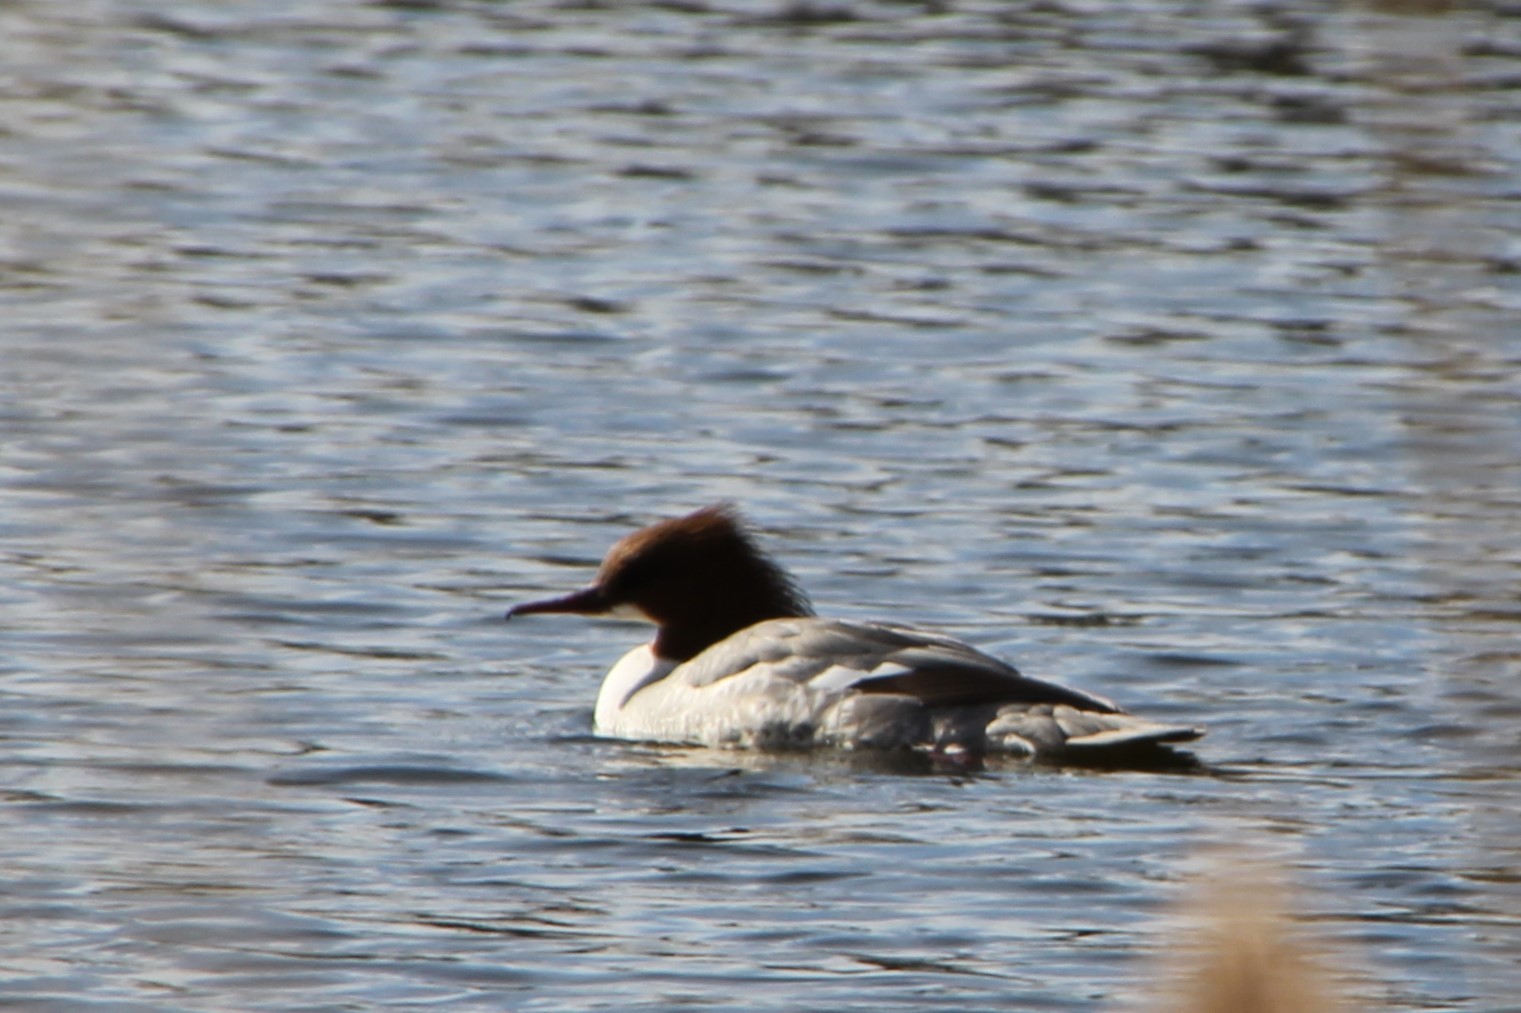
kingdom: Animalia
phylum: Chordata
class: Aves
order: Anseriformes
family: Anatidae
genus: Mergus
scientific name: Mergus merganser
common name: Common merganser
